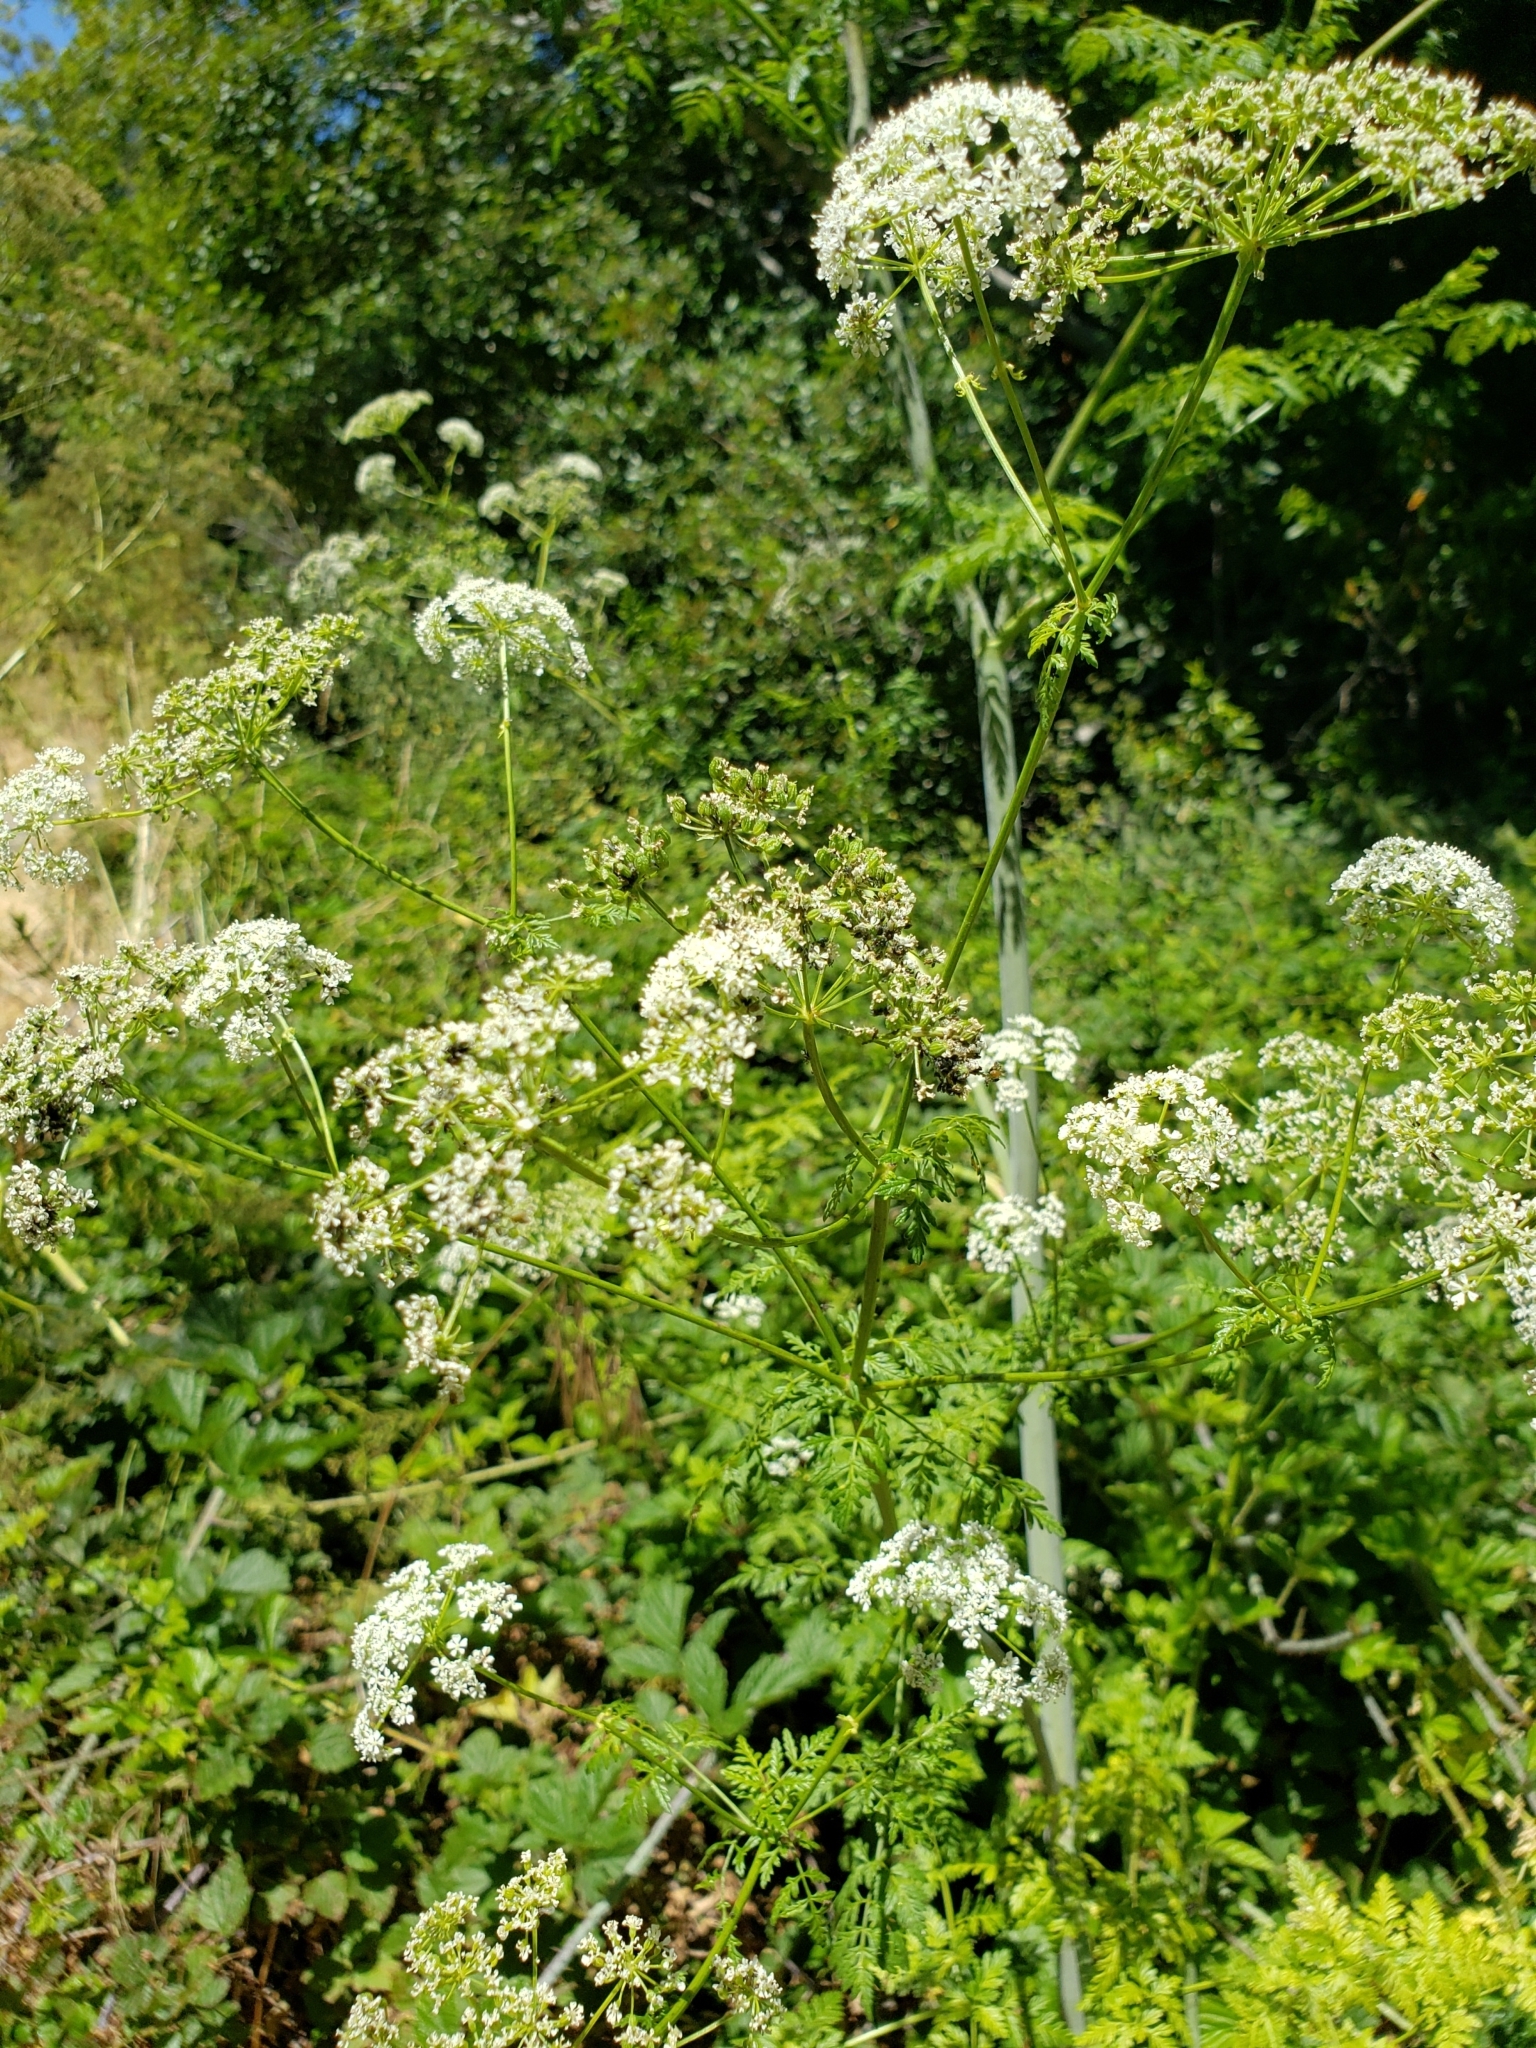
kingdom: Plantae
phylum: Tracheophyta
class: Magnoliopsida
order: Apiales
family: Apiaceae
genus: Conium
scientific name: Conium maculatum
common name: Hemlock
